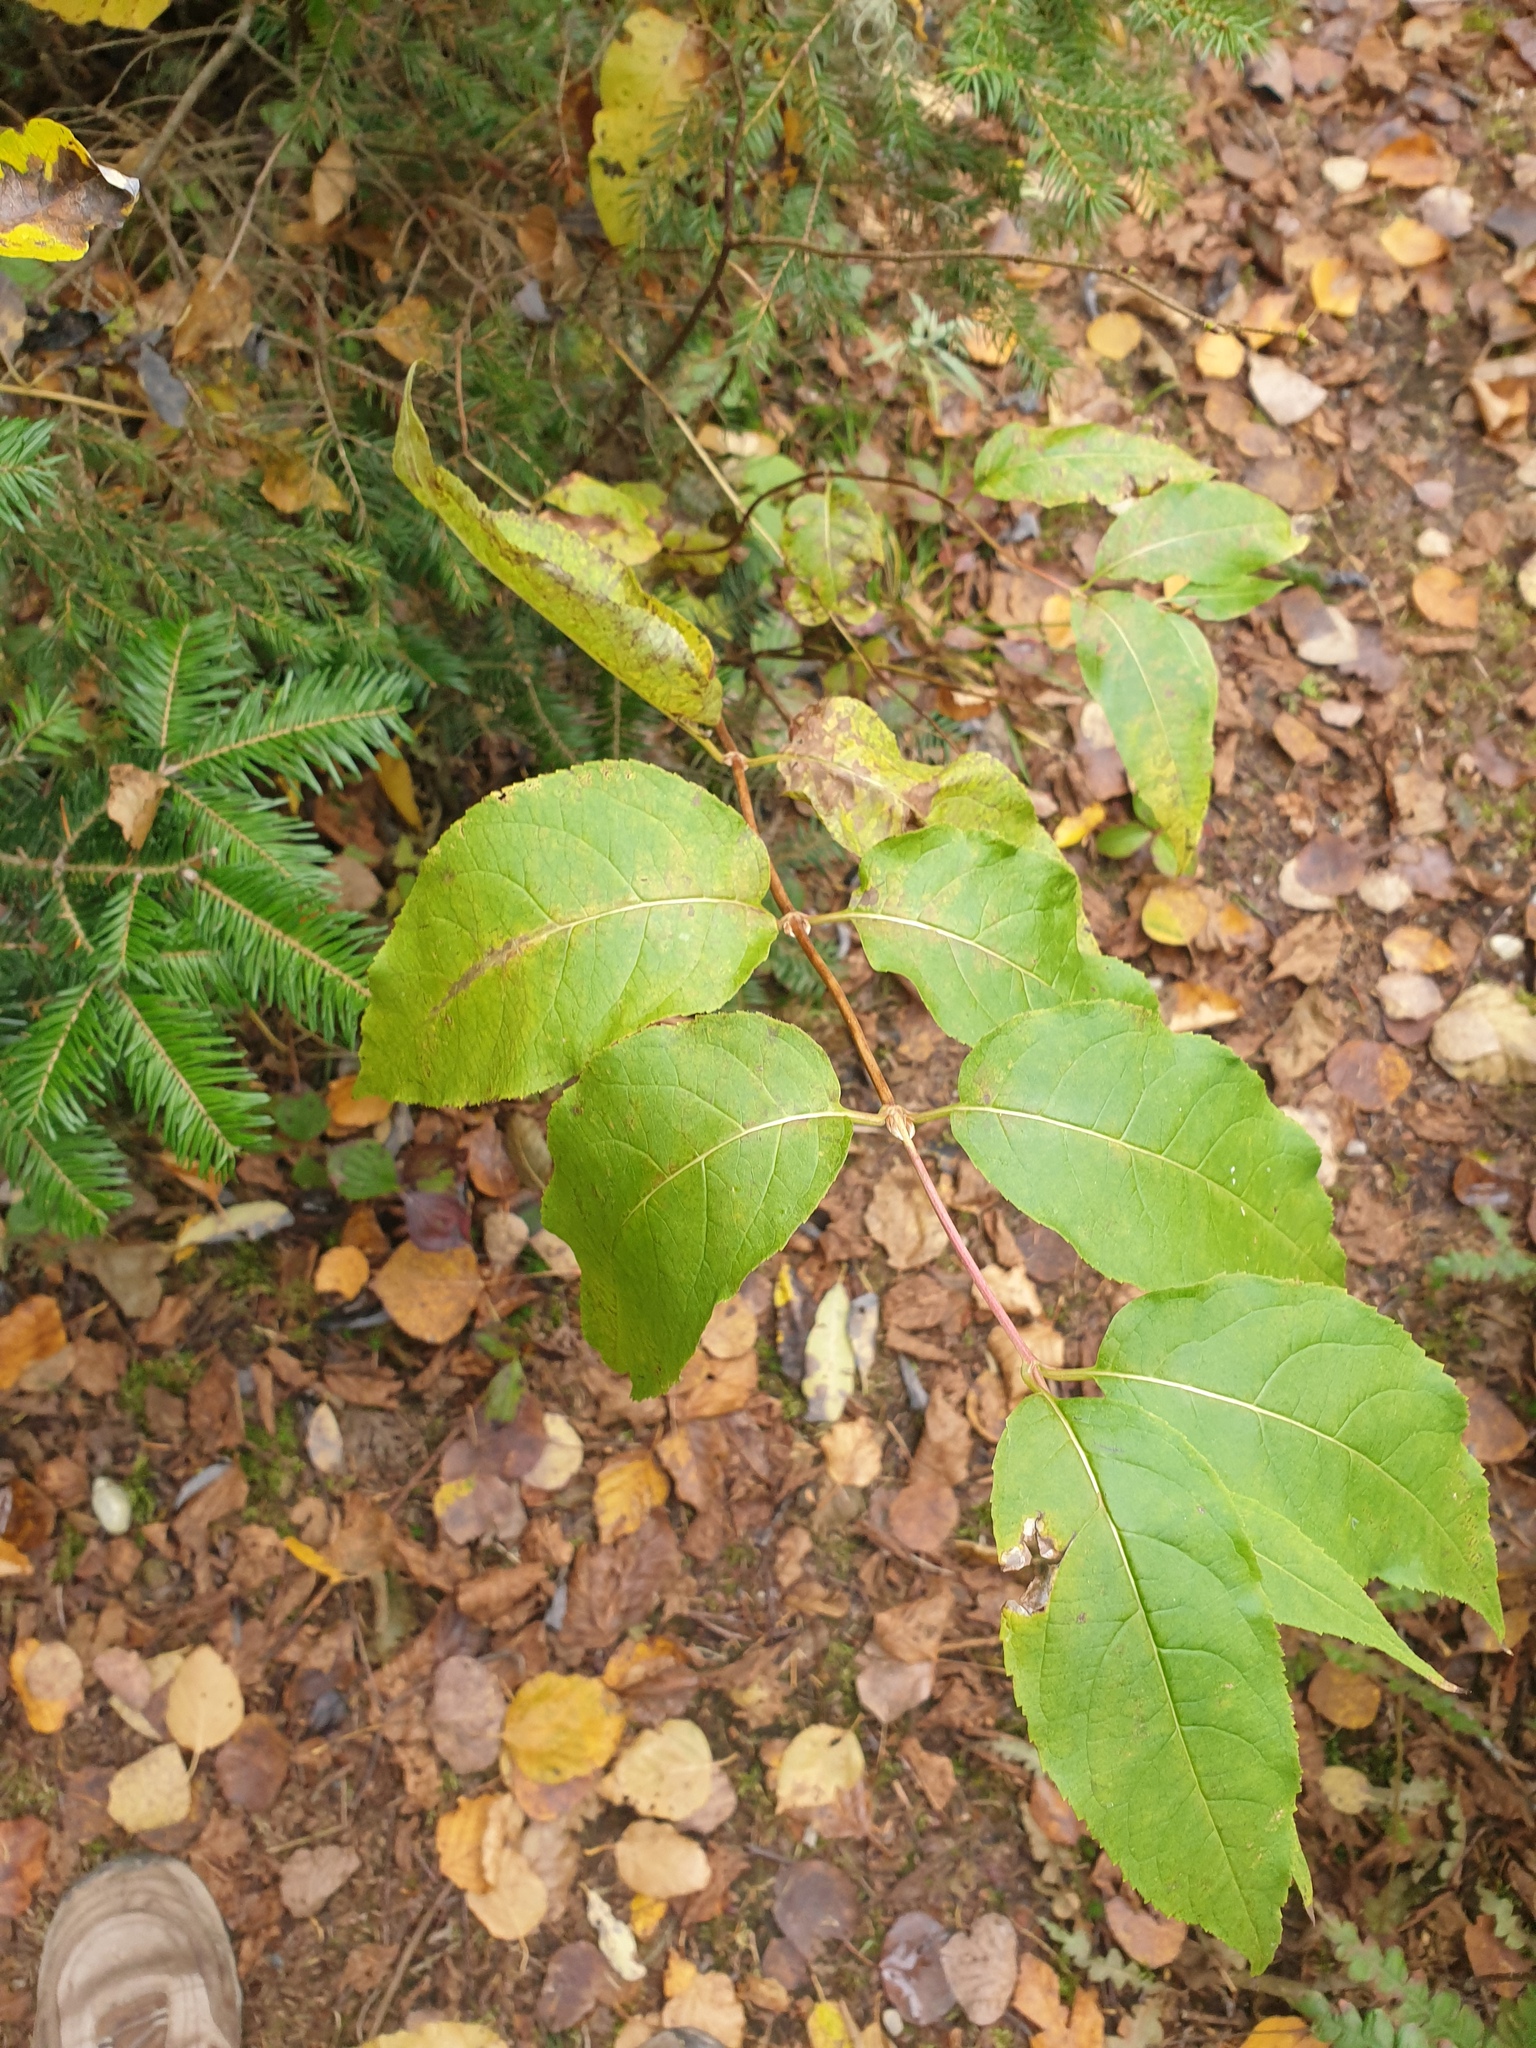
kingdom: Plantae
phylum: Tracheophyta
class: Magnoliopsida
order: Dipsacales
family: Caprifoliaceae
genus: Diervilla
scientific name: Diervilla lonicera
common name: Bush-honeysuckle
